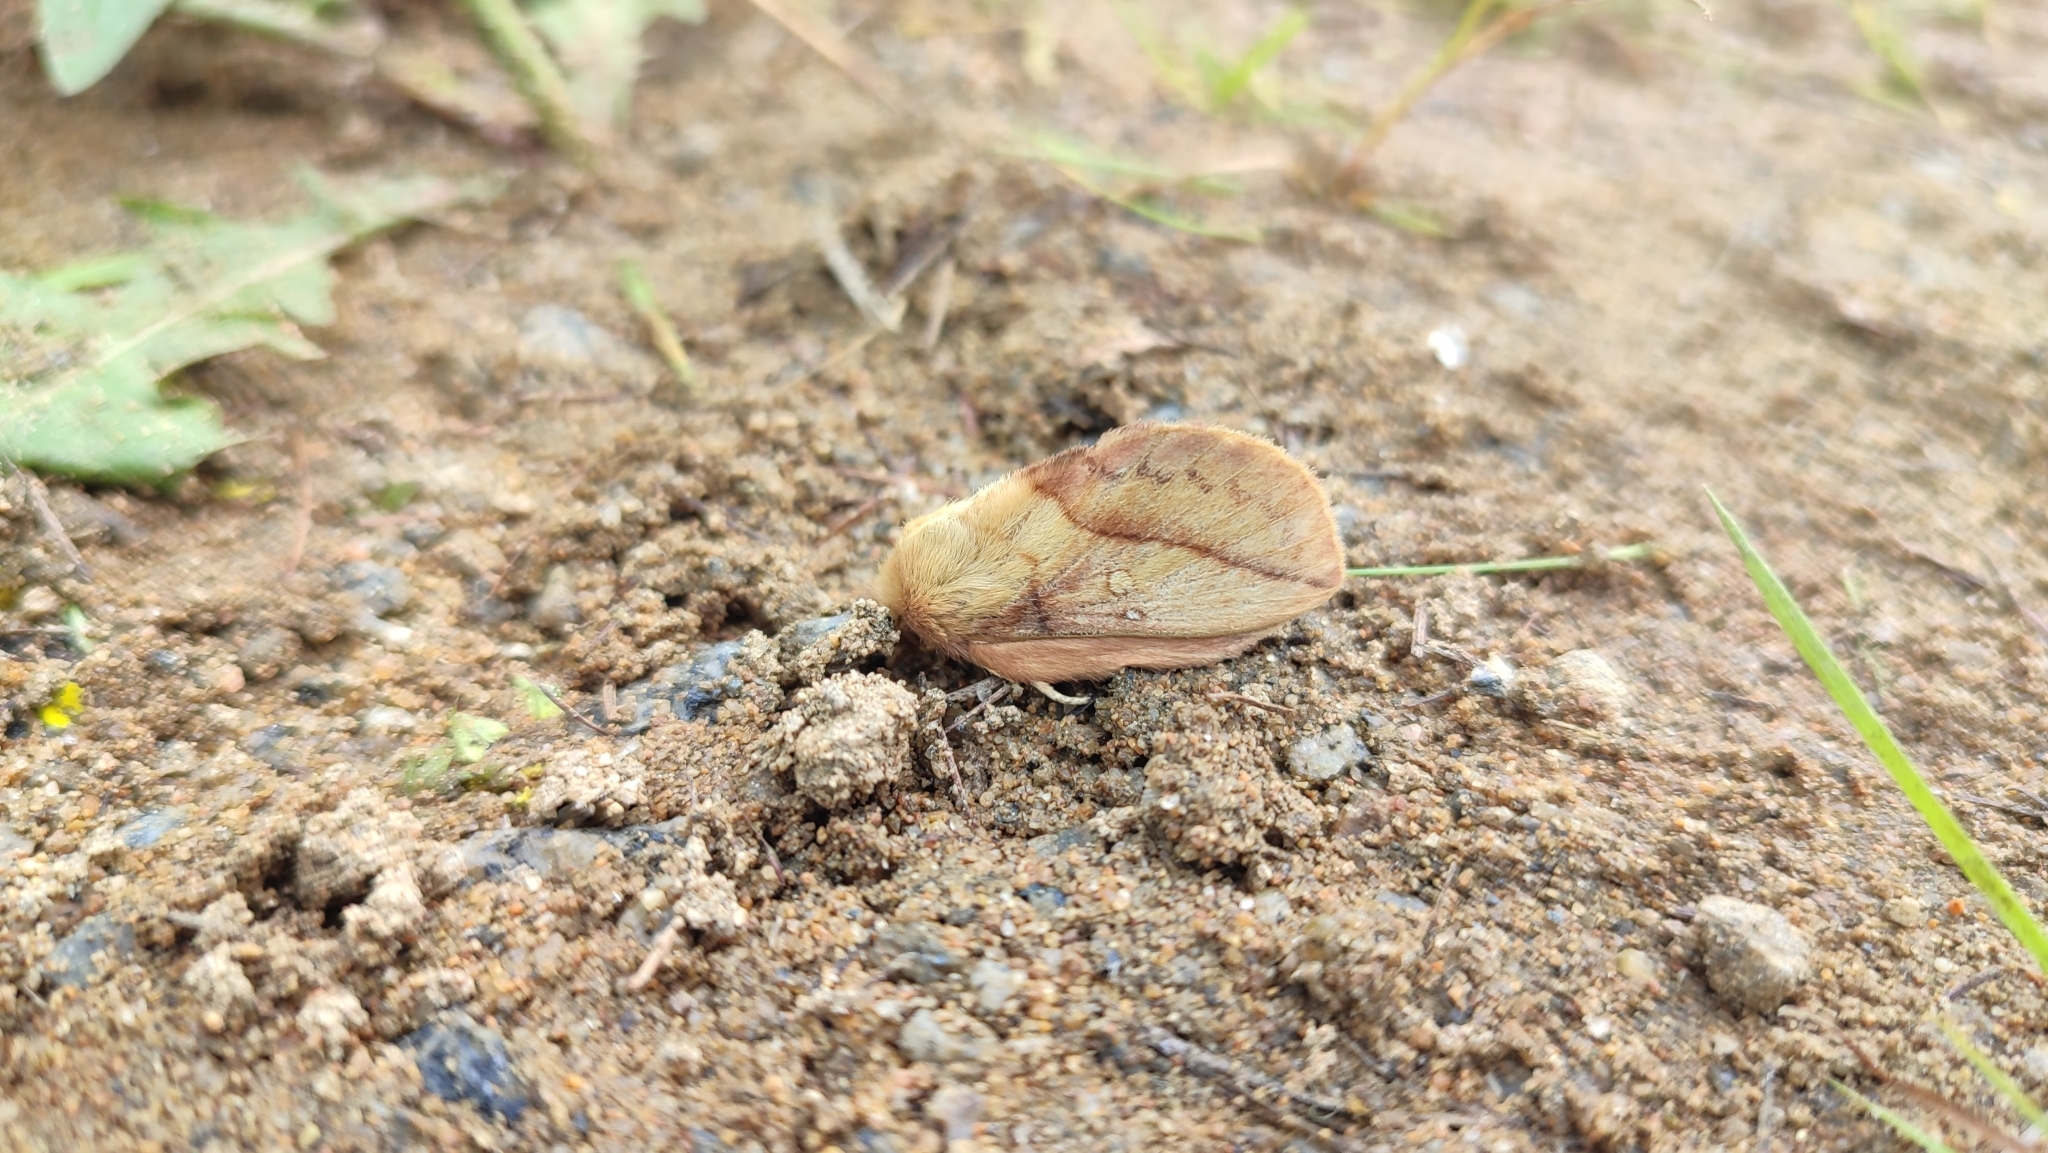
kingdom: Animalia
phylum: Arthropoda
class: Insecta
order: Lepidoptera
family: Lasiocampidae
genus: Euthrix
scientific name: Euthrix potatoria
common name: Drinker
